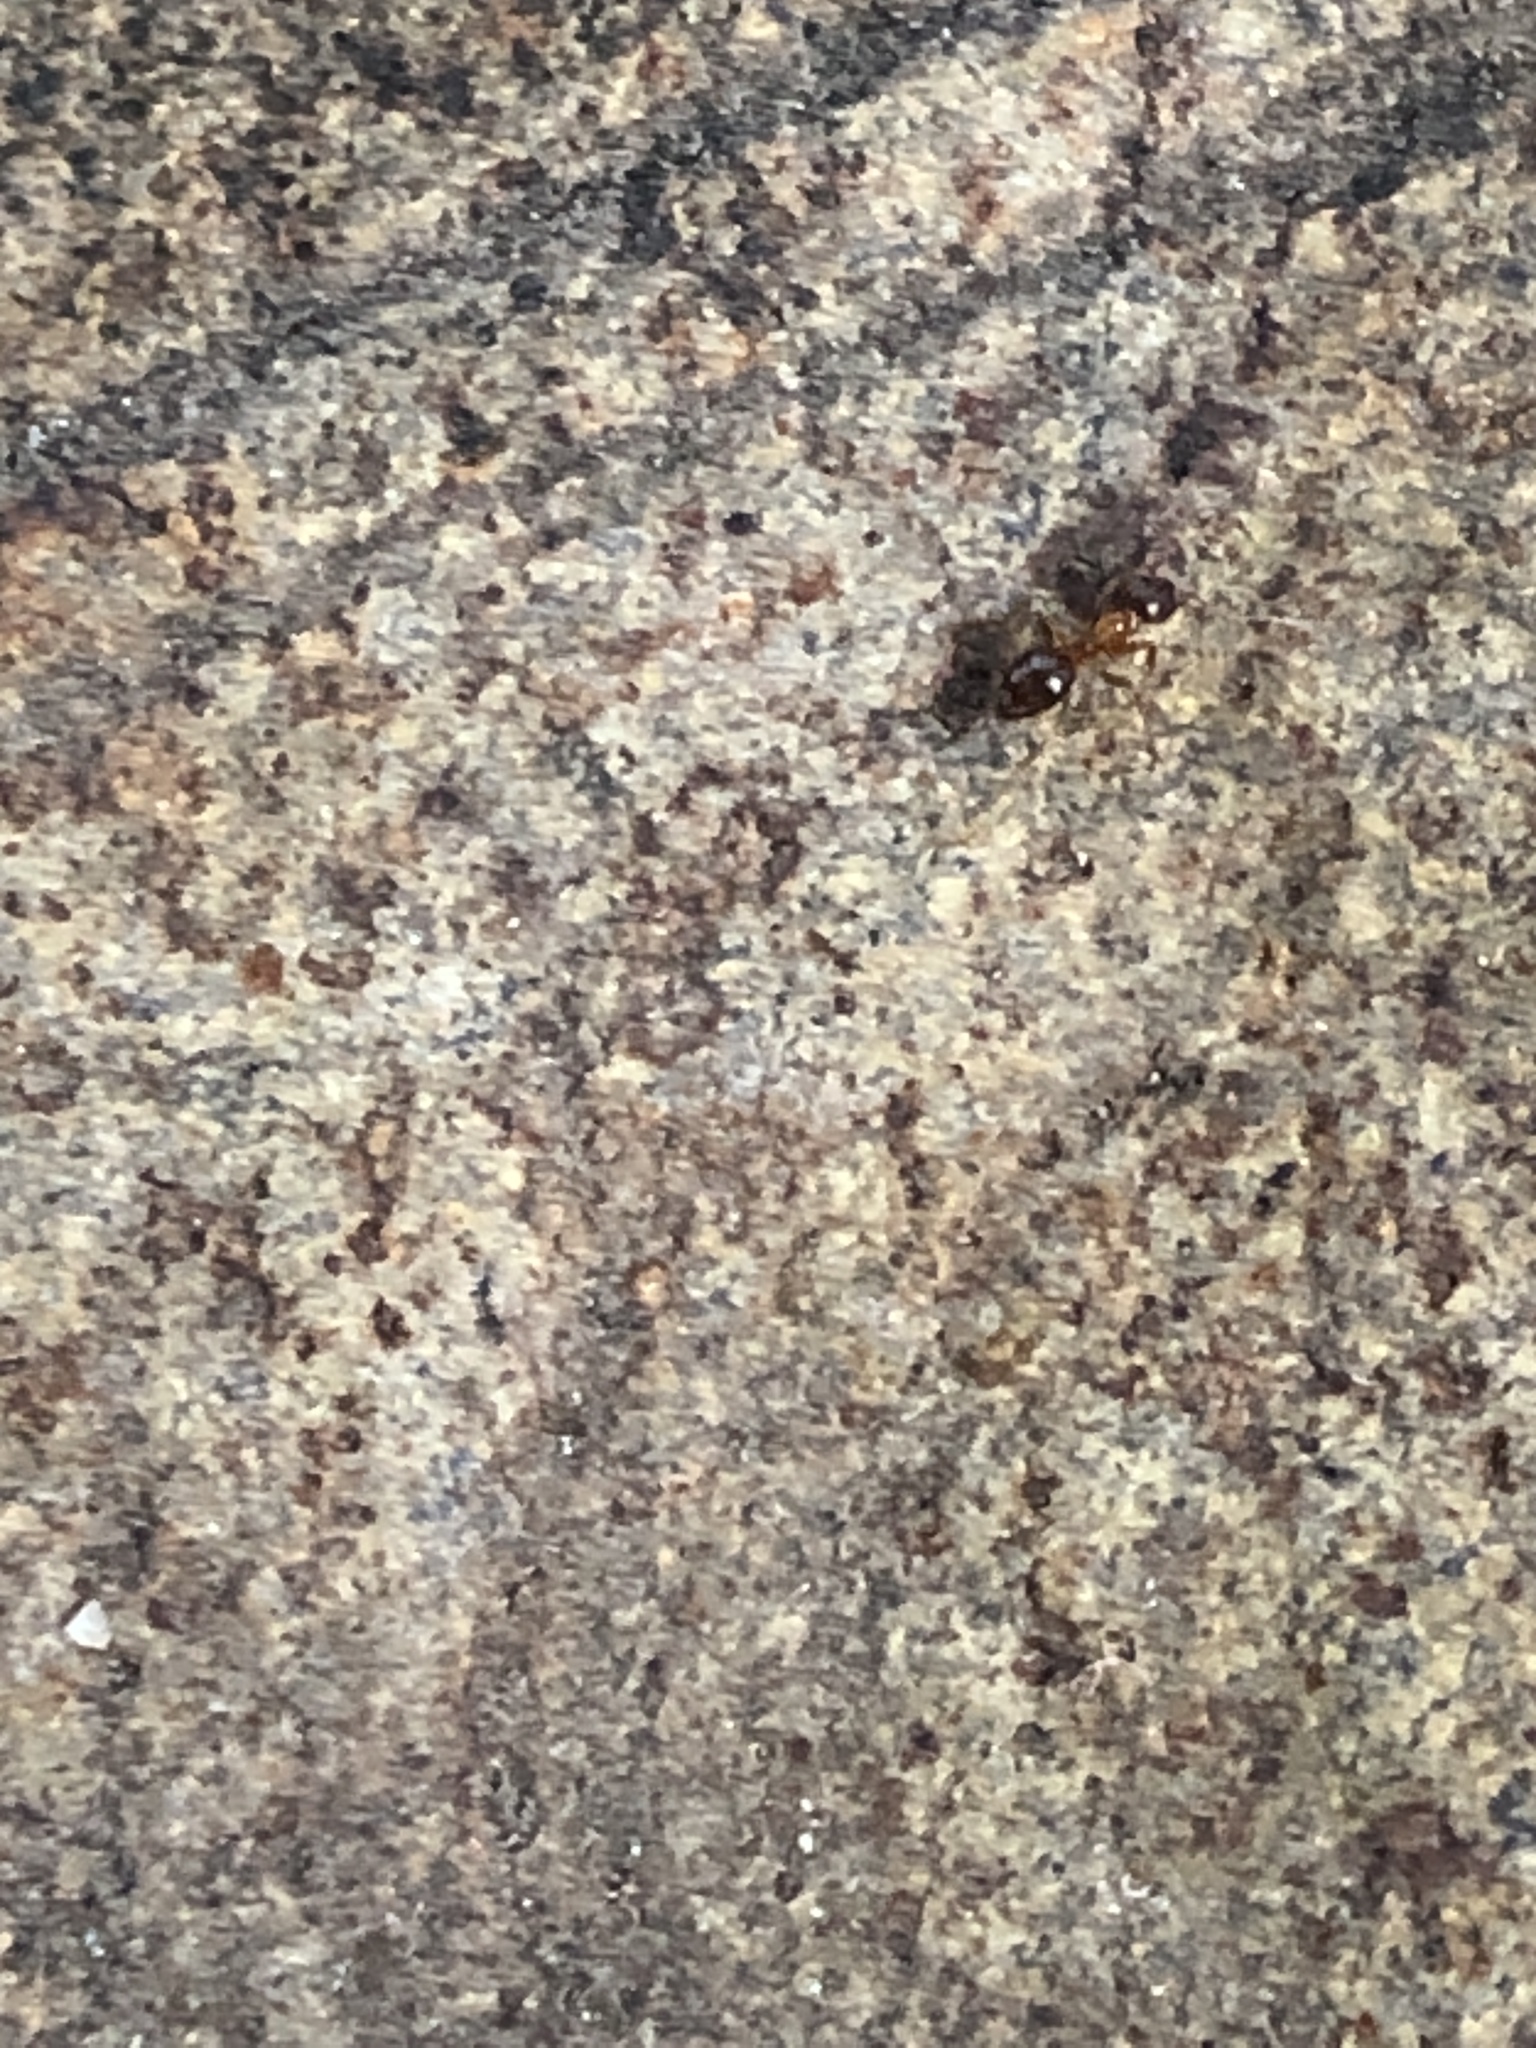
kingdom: Animalia
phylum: Arthropoda
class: Insecta
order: Hymenoptera
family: Formicidae
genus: Paratrechina
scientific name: Paratrechina flavipes
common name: Eastern asian formicine ant
